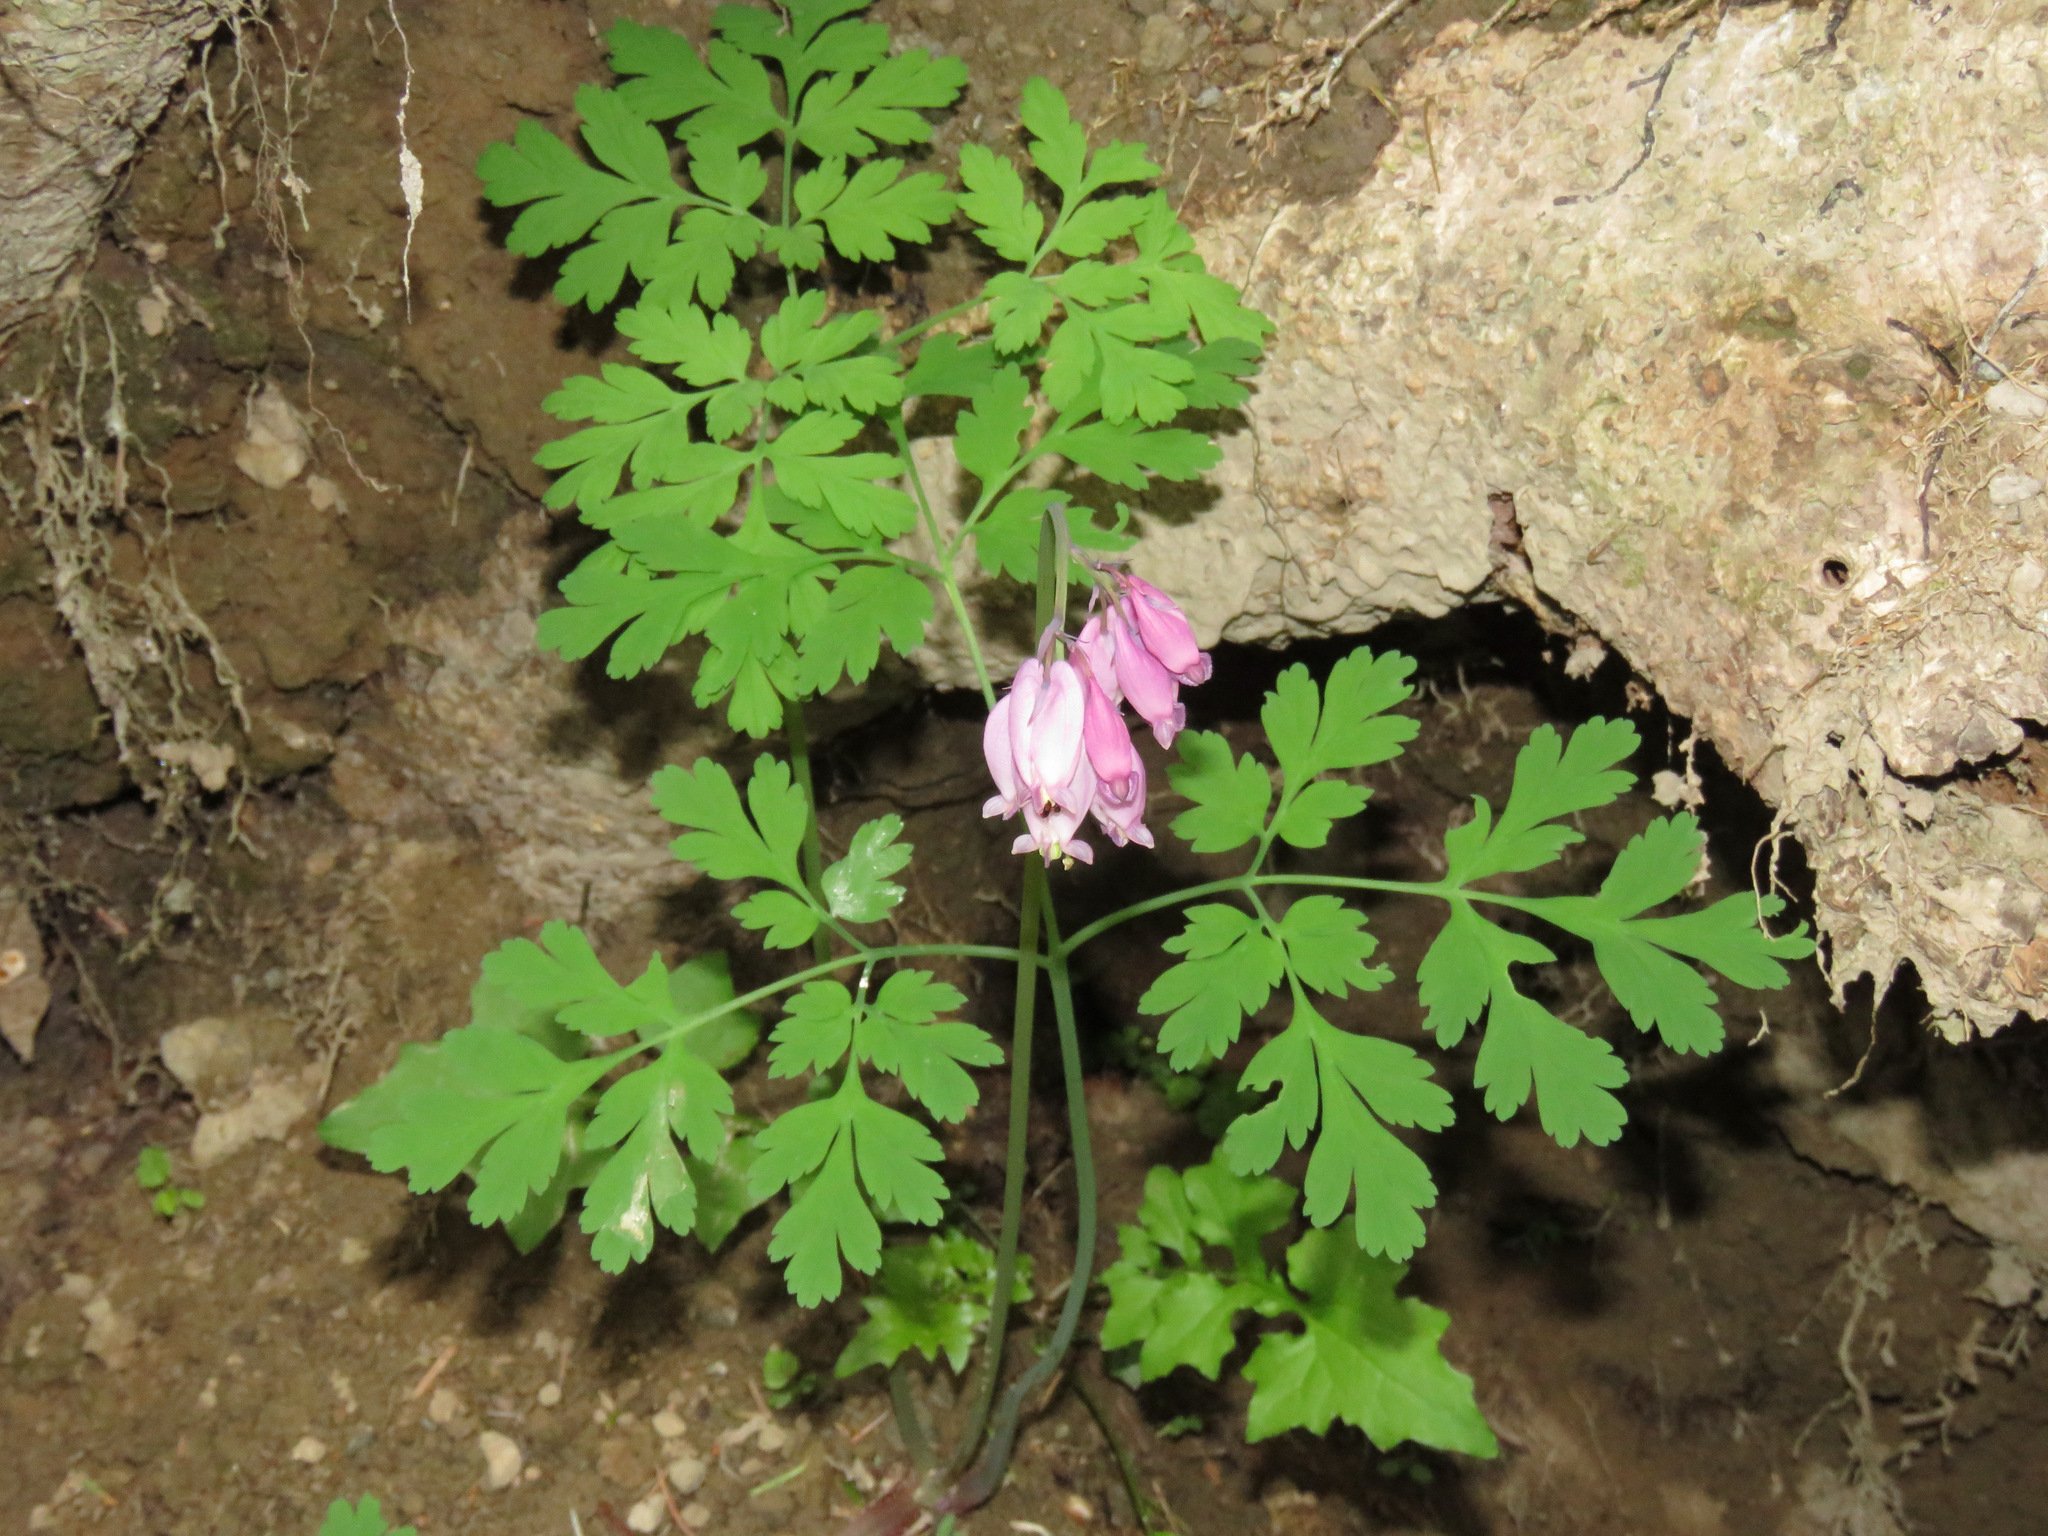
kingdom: Plantae
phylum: Tracheophyta
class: Magnoliopsida
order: Ranunculales
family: Papaveraceae
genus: Dicentra
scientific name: Dicentra formosa
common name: Bleeding-heart
